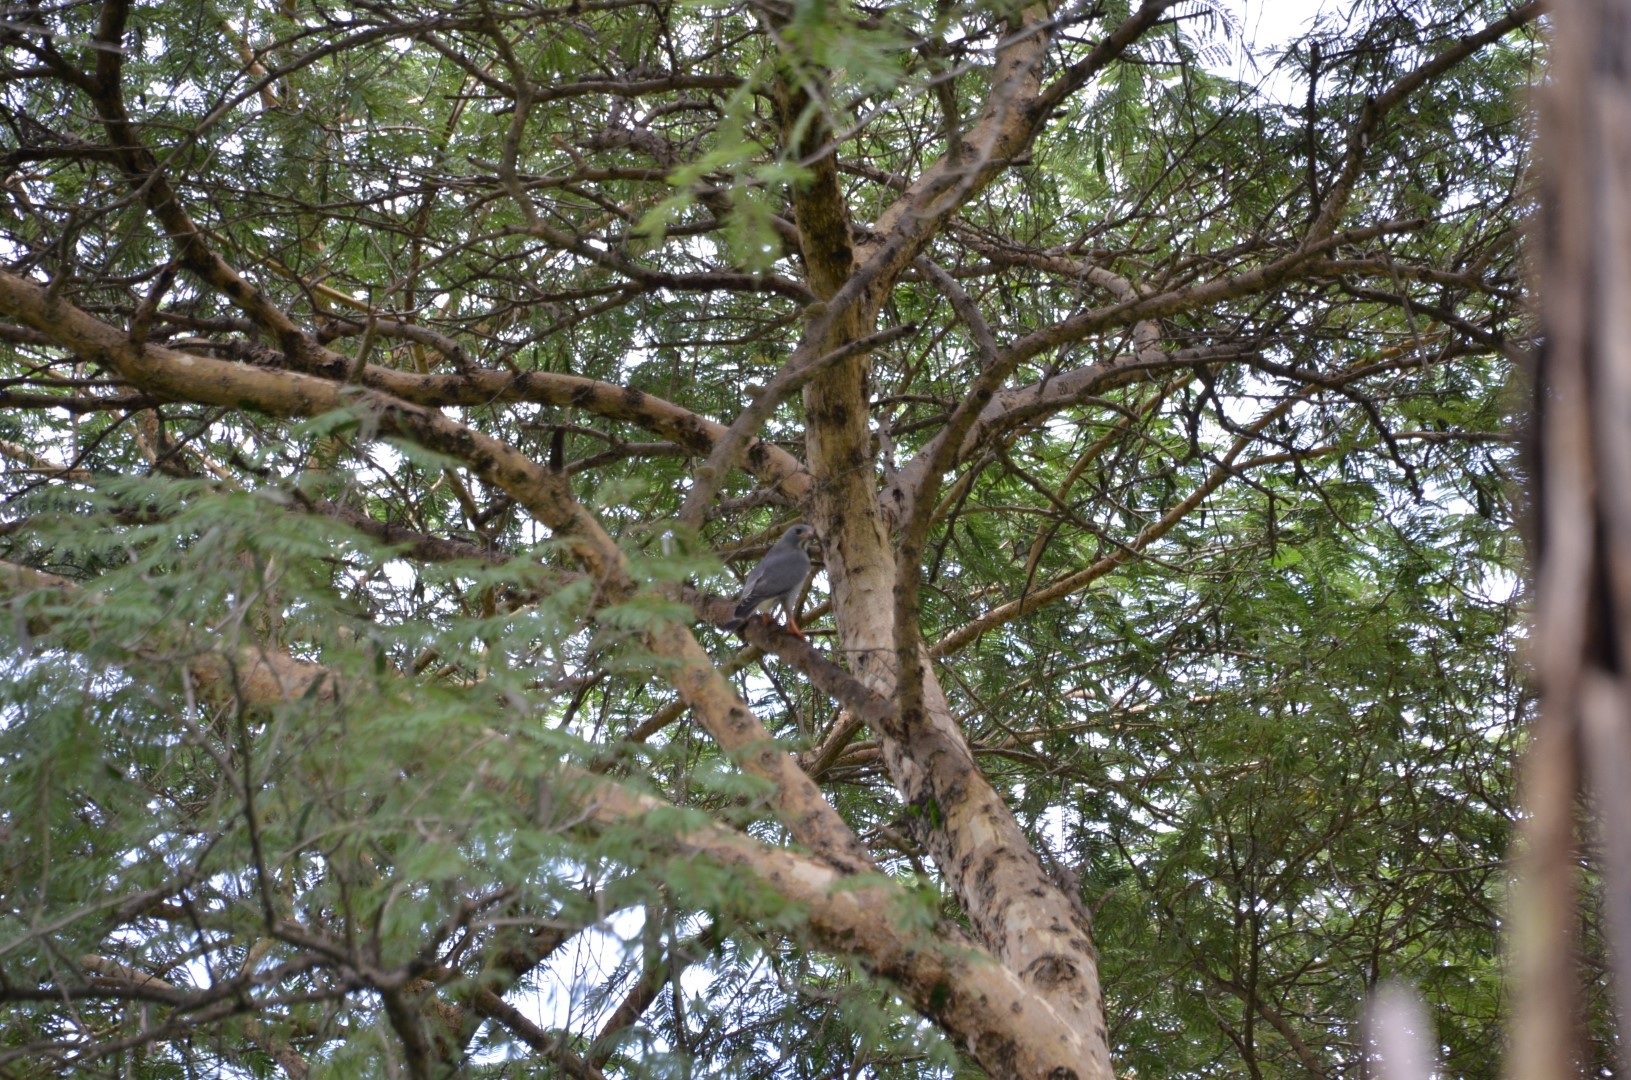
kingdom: Animalia
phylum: Chordata
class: Aves
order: Accipitriformes
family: Accipitridae
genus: Kaupifalco
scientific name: Kaupifalco monogrammicus
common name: Lizard buzzard
